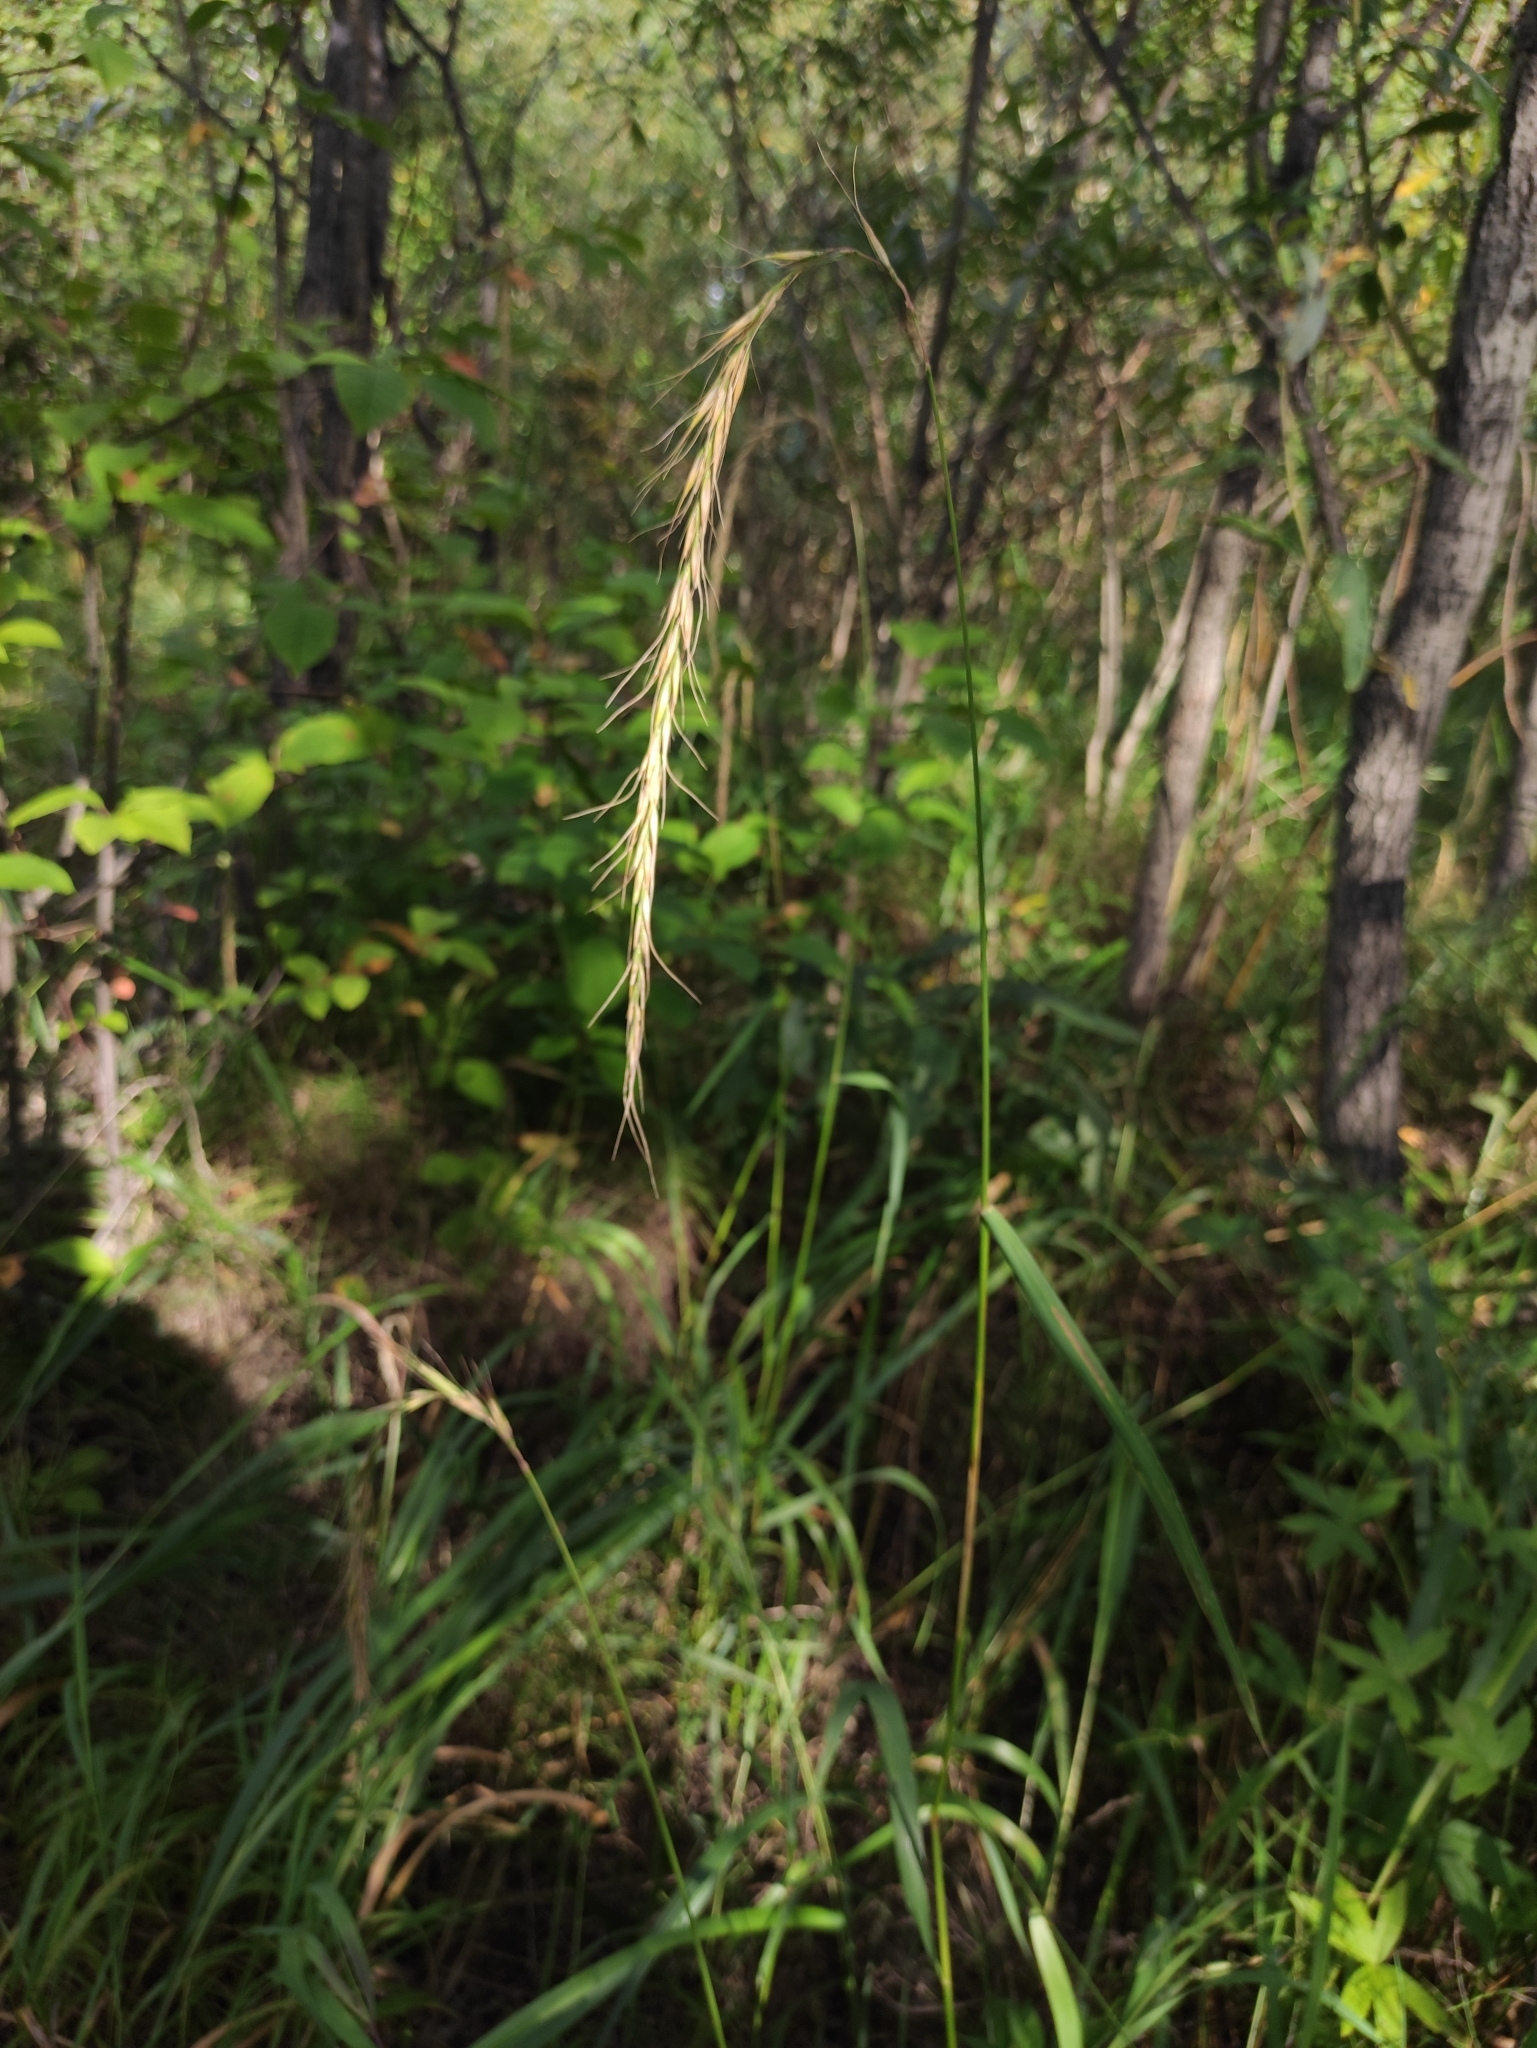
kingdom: Plantae
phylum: Tracheophyta
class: Liliopsida
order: Poales
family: Poaceae
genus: Elymus
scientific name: Elymus sibiricus
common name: Siberian wildrye
